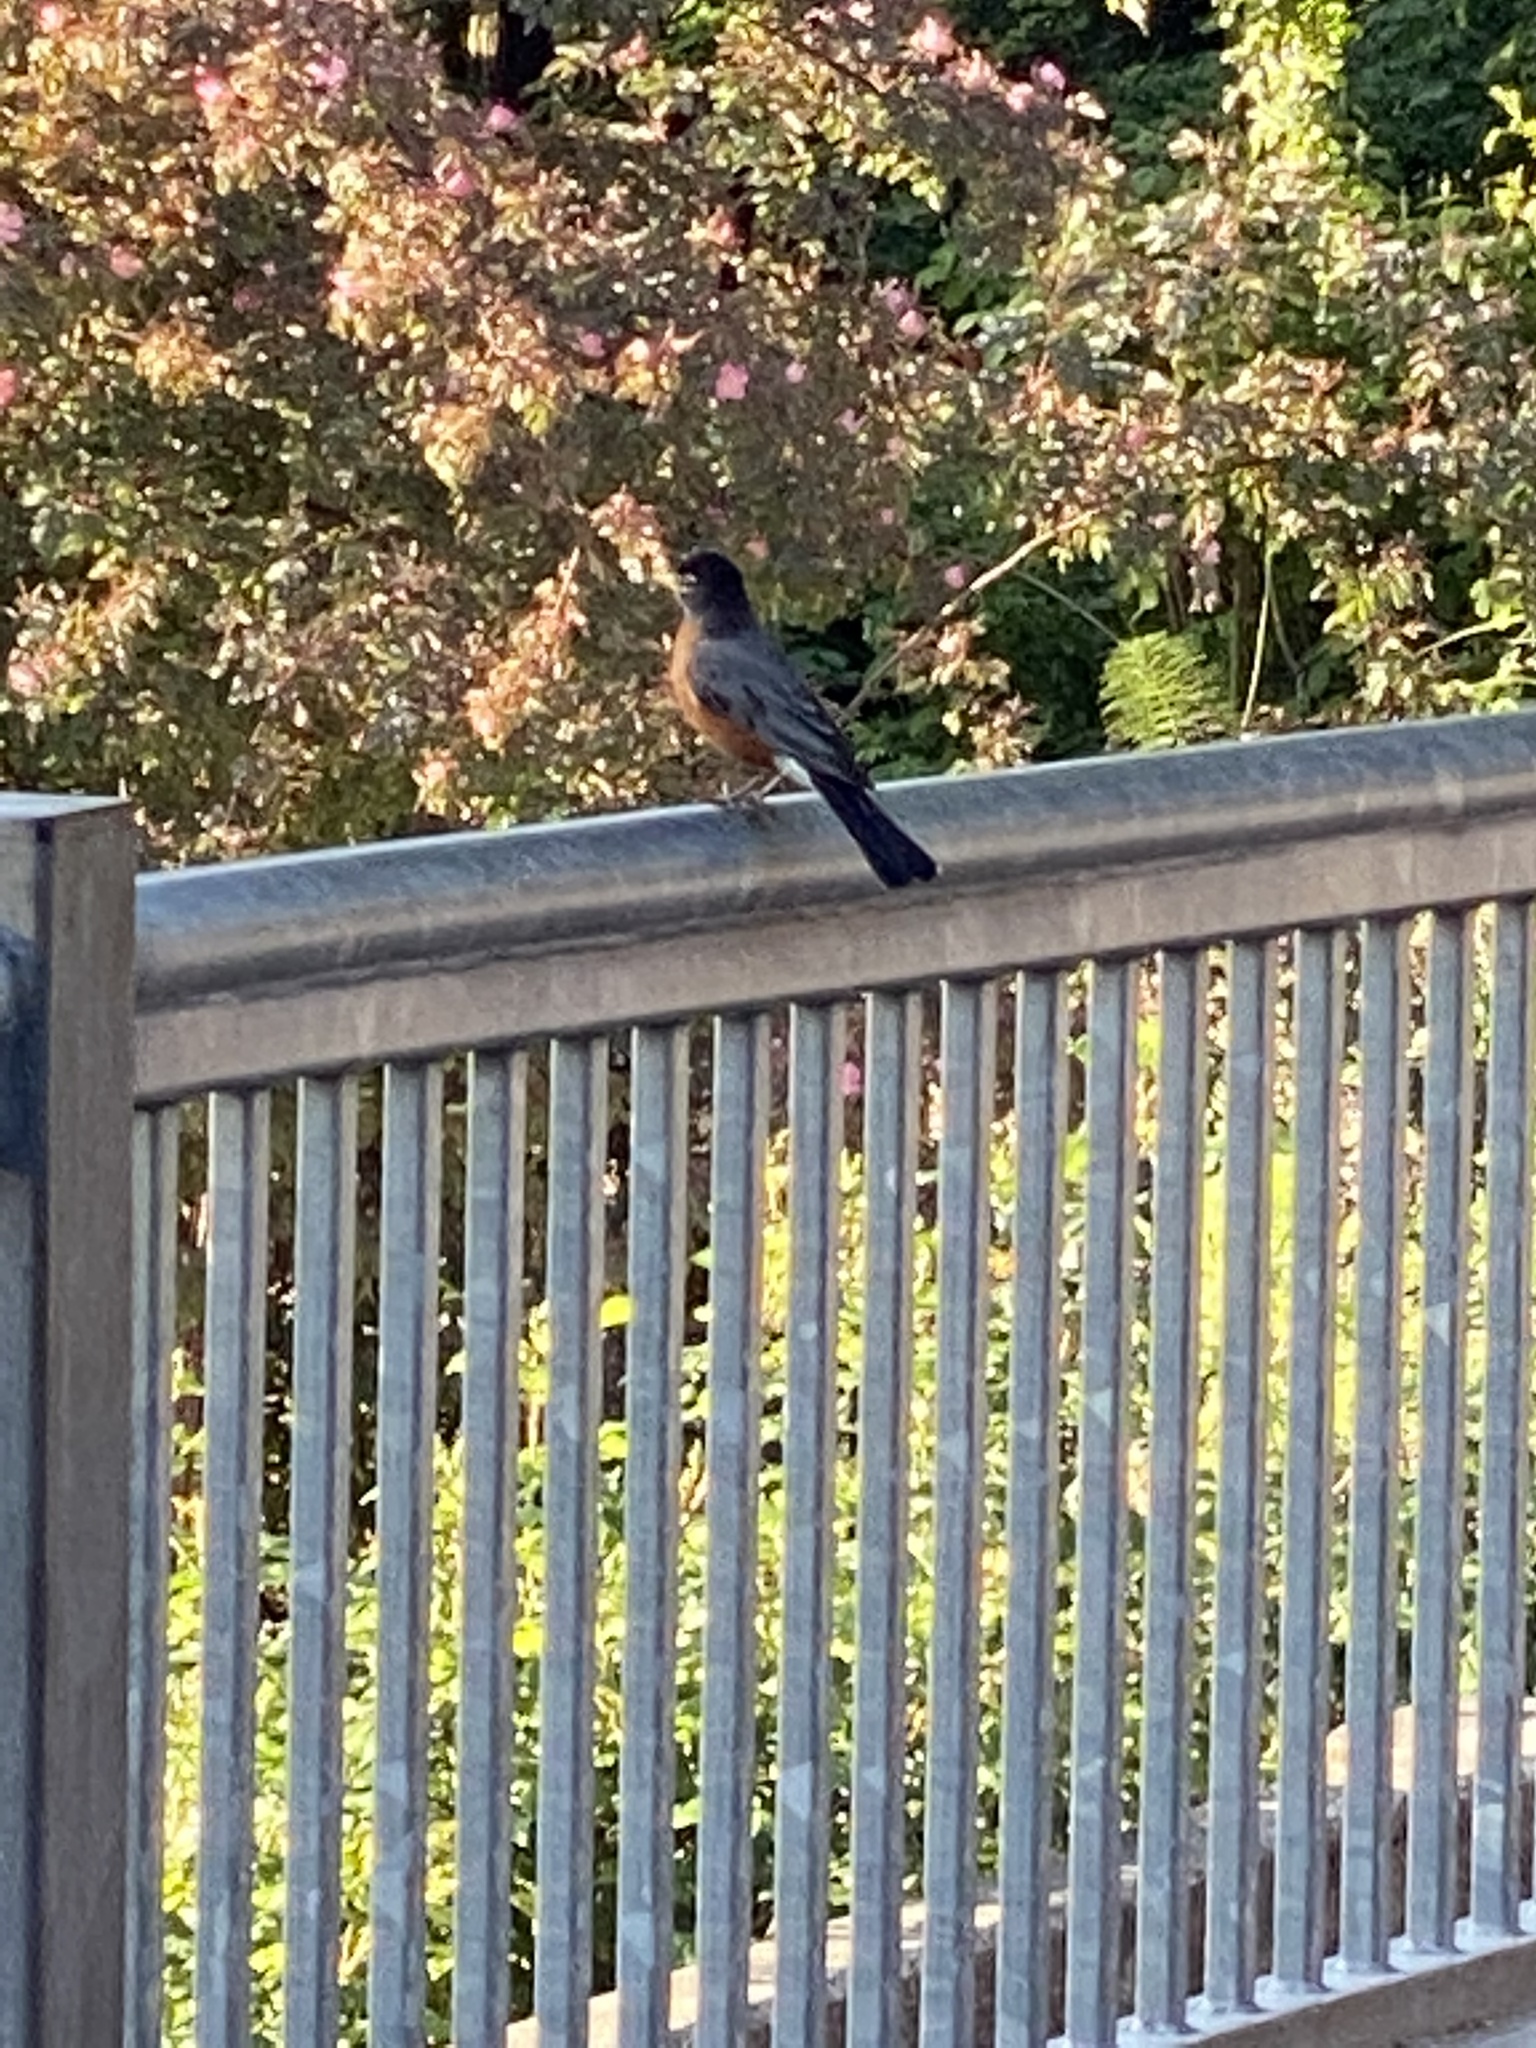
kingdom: Animalia
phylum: Chordata
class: Aves
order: Passeriformes
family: Turdidae
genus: Turdus
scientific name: Turdus migratorius
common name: American robin
